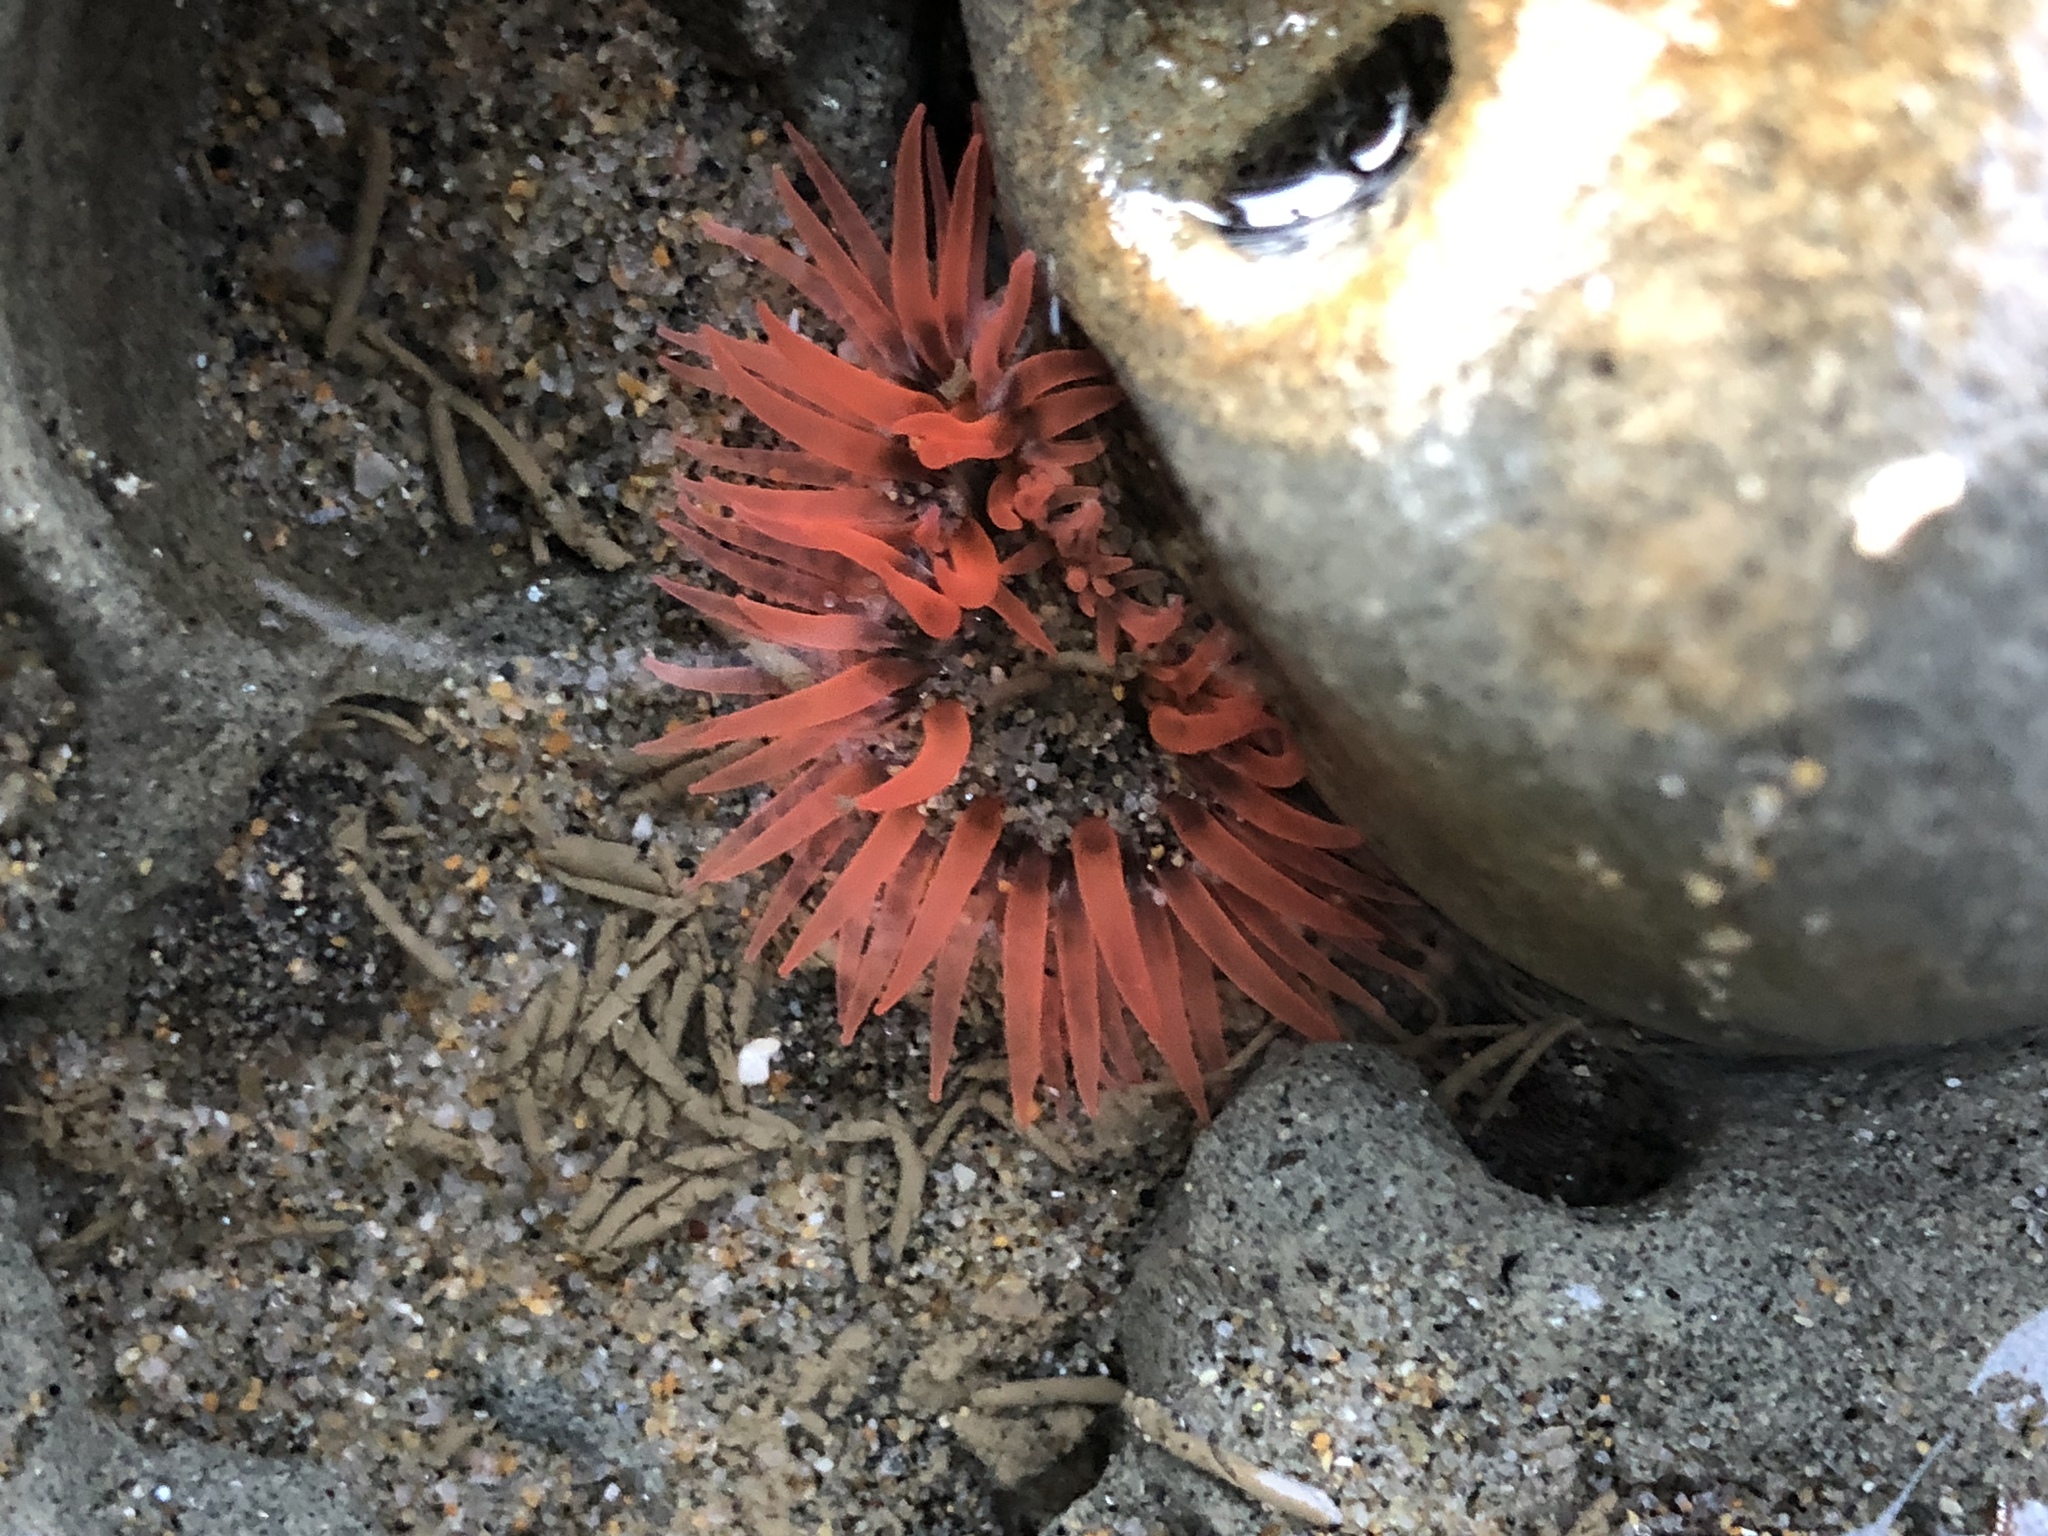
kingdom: Animalia
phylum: Cnidaria
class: Anthozoa
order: Actiniaria
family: Actiniidae
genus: Anthopleura
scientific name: Anthopleura artemisia
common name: Buried sea anemone
